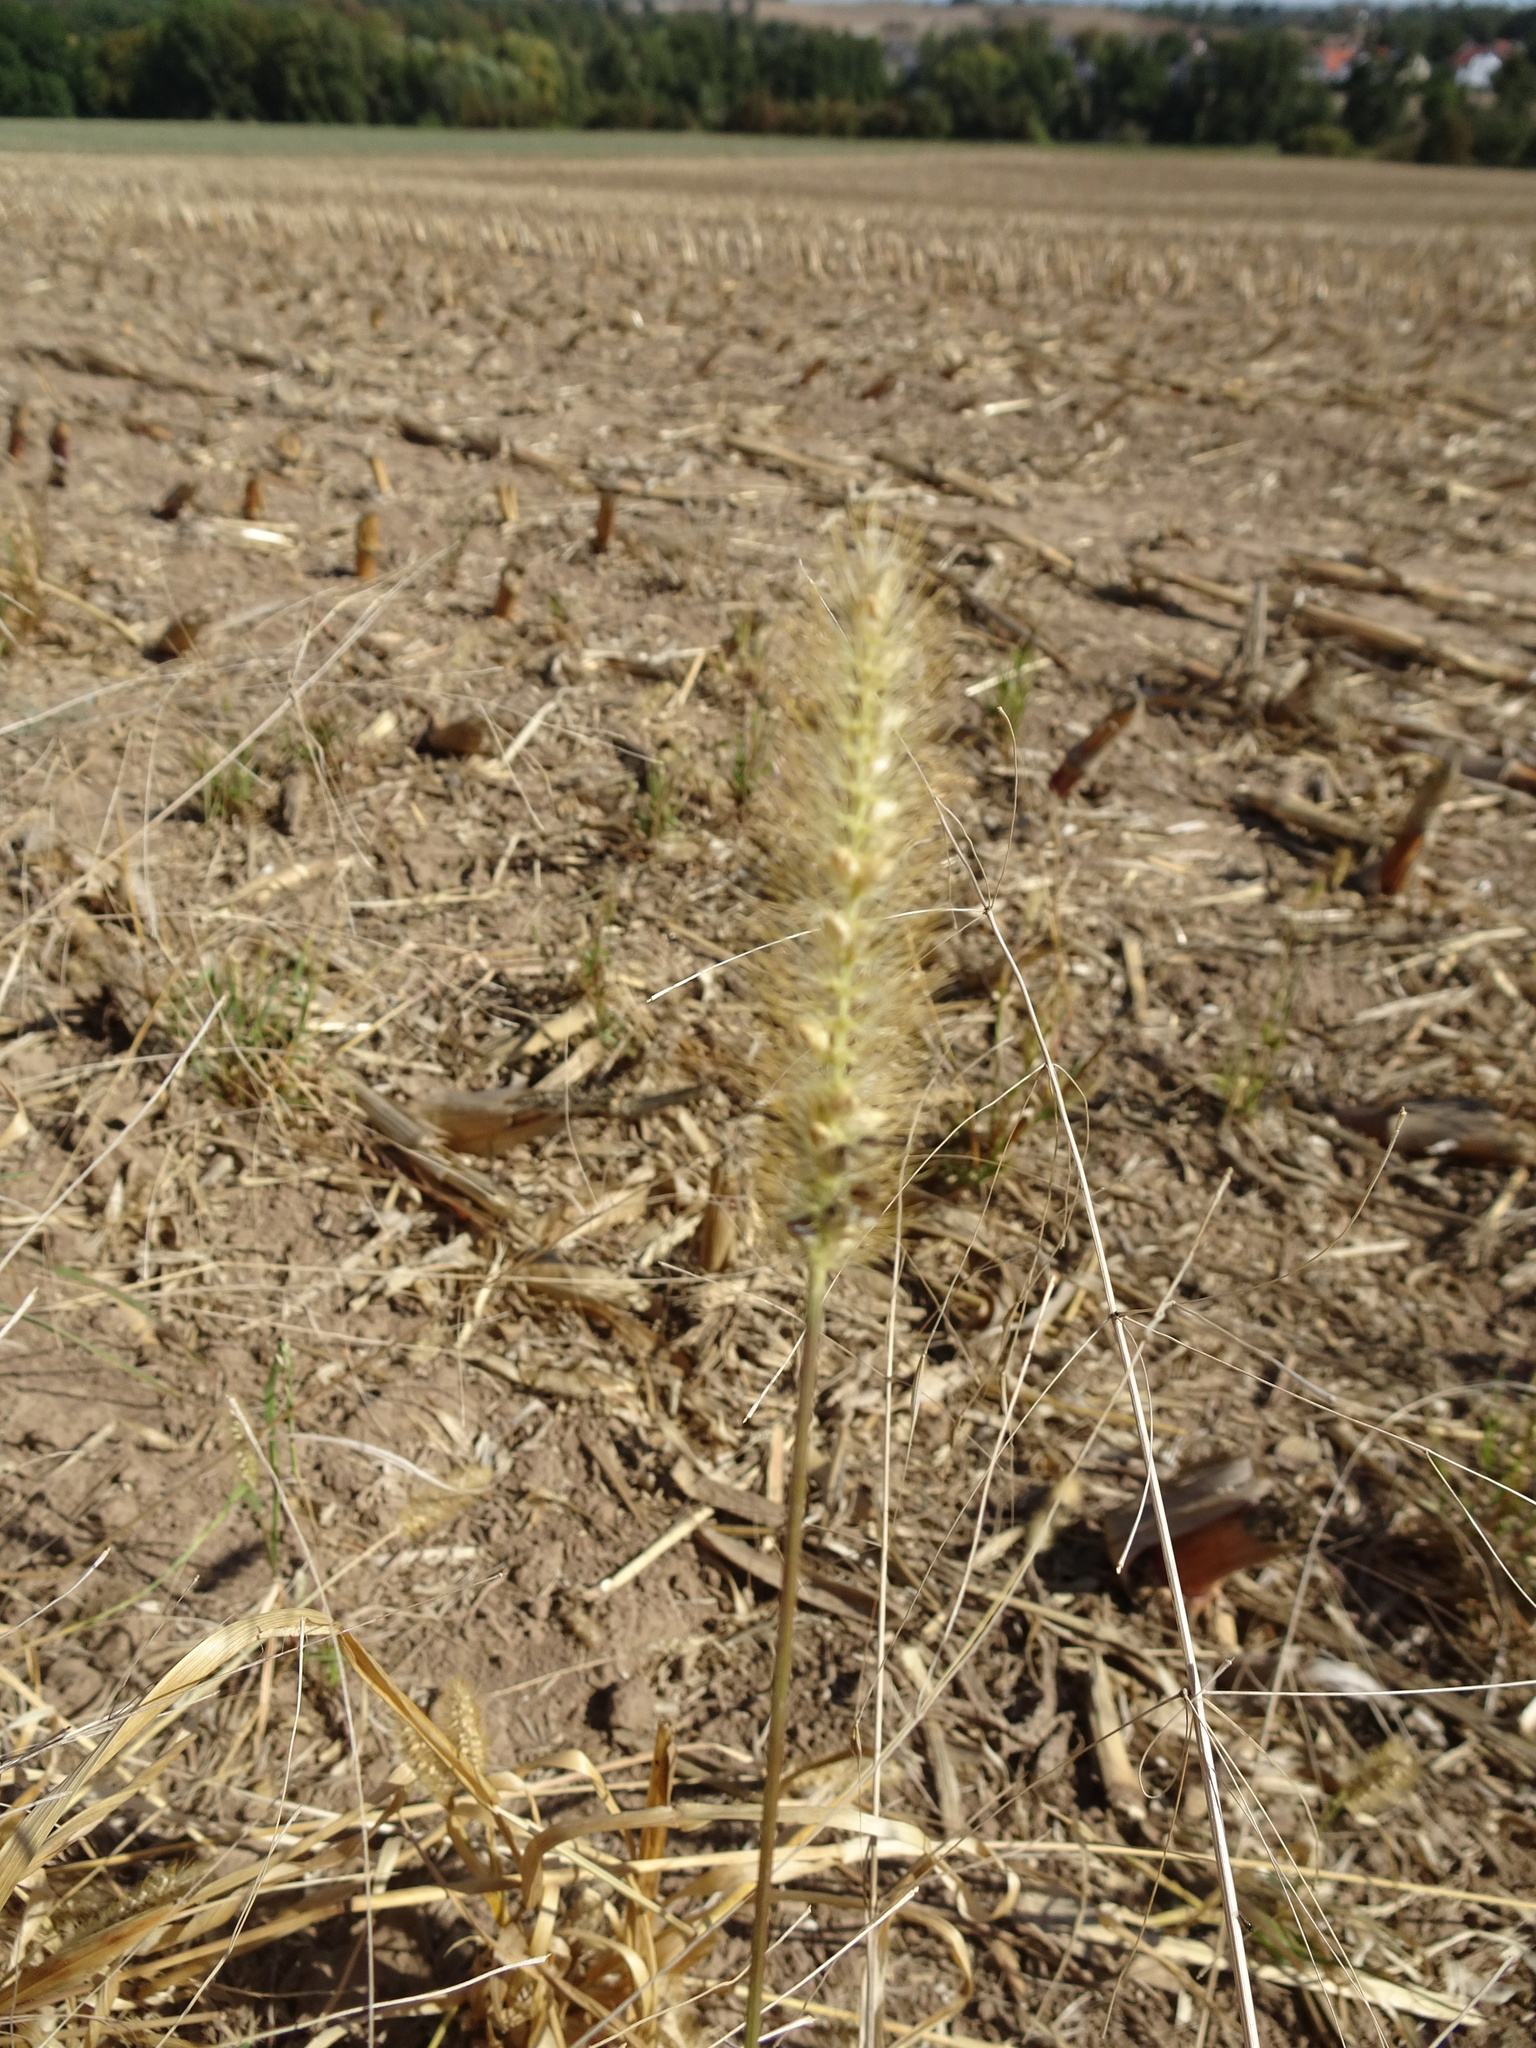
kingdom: Plantae
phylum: Tracheophyta
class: Liliopsida
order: Poales
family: Poaceae
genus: Setaria
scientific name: Setaria pumila
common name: Yellow bristle-grass
